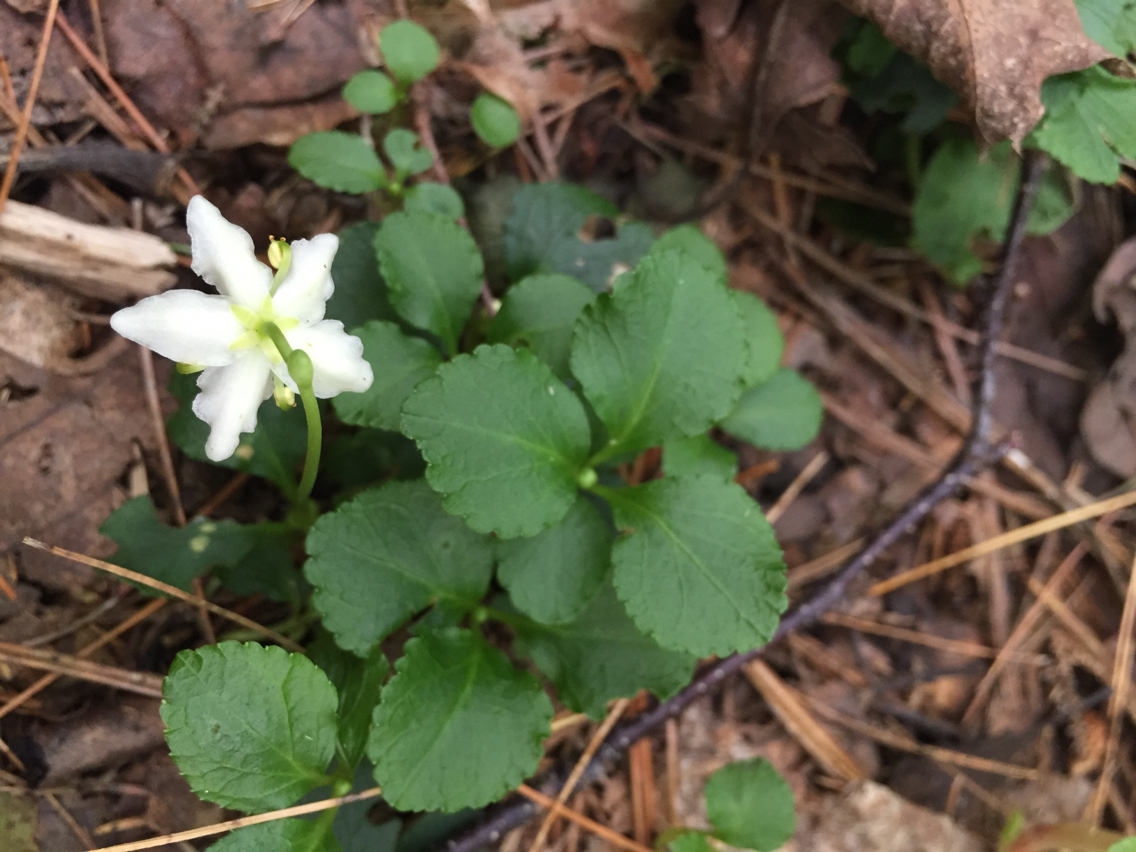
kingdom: Plantae
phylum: Tracheophyta
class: Magnoliopsida
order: Ericales
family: Ericaceae
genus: Moneses
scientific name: Moneses uniflora
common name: One-flowered wintergreen
